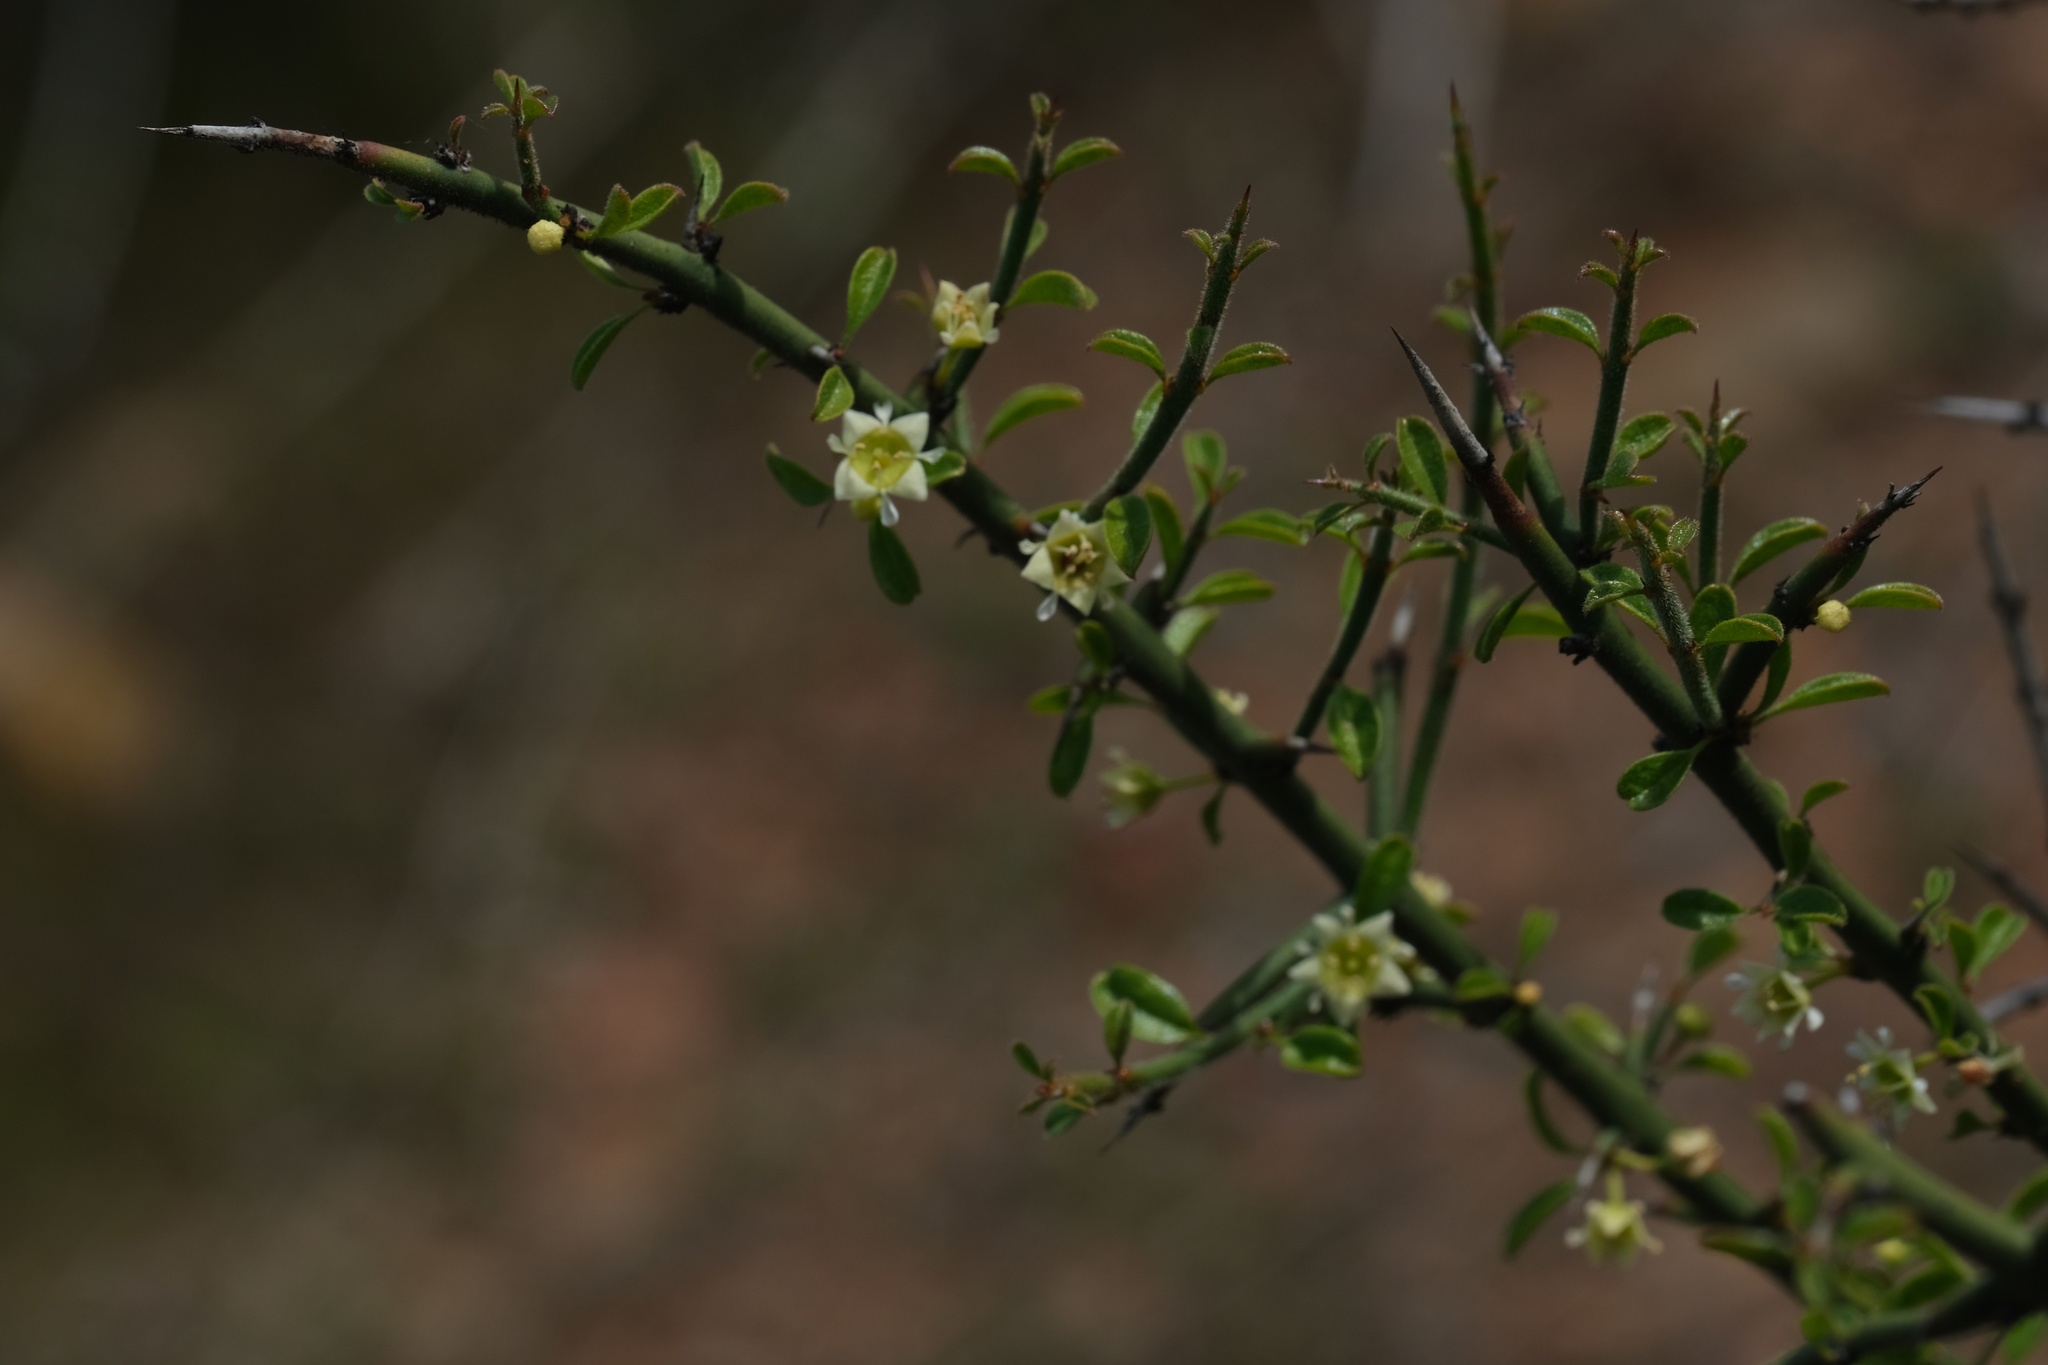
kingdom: Plantae
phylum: Tracheophyta
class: Magnoliopsida
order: Rosales
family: Rhamnaceae
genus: Adolphia
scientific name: Adolphia californica
